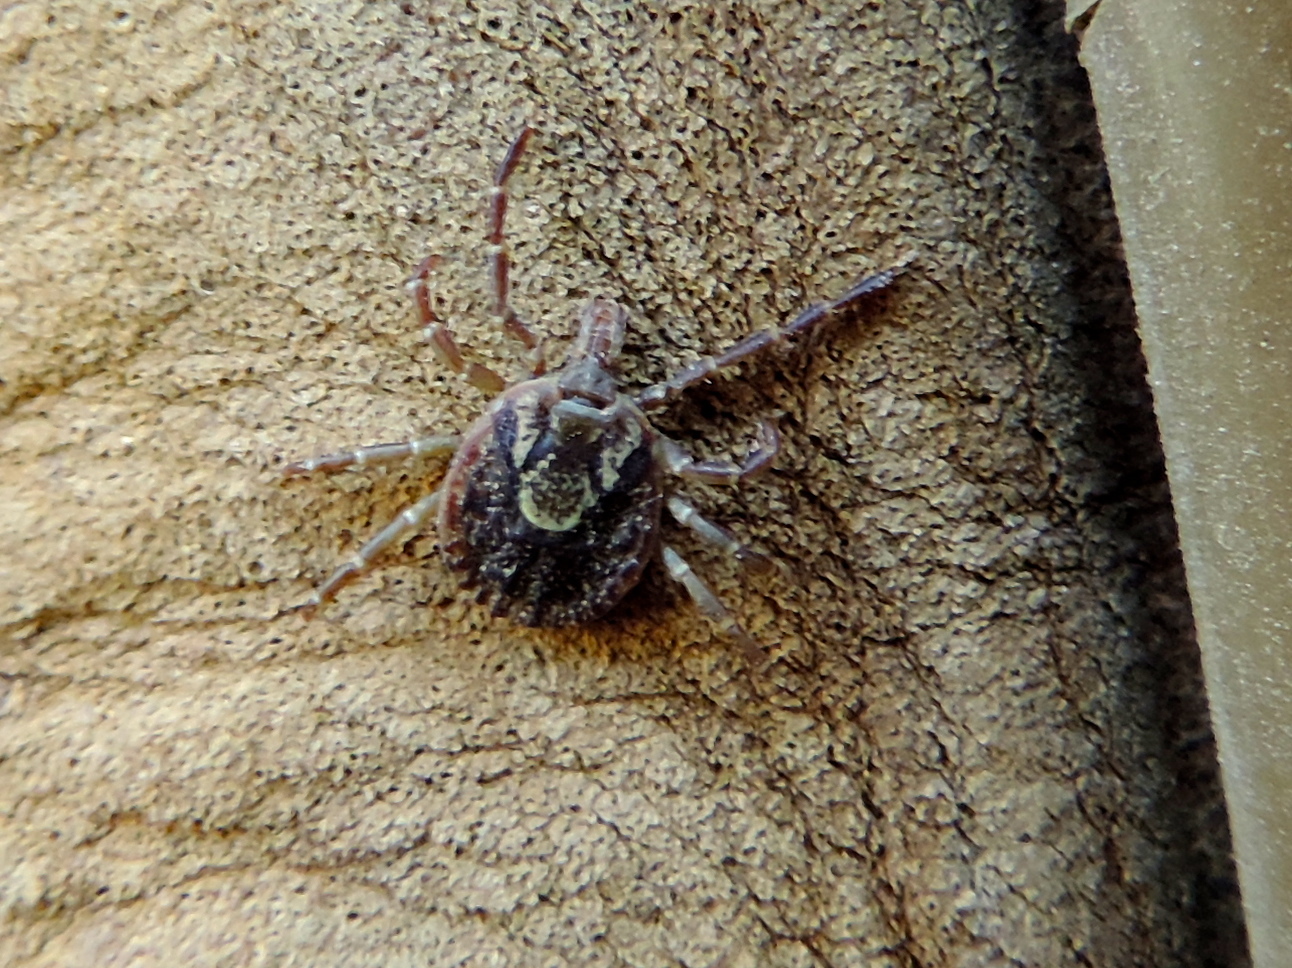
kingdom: Animalia
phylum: Arthropoda
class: Arachnida
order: Ixodida
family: Ixodidae
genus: Amblyomma
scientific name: Amblyomma cajennense
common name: Cayenne tick
